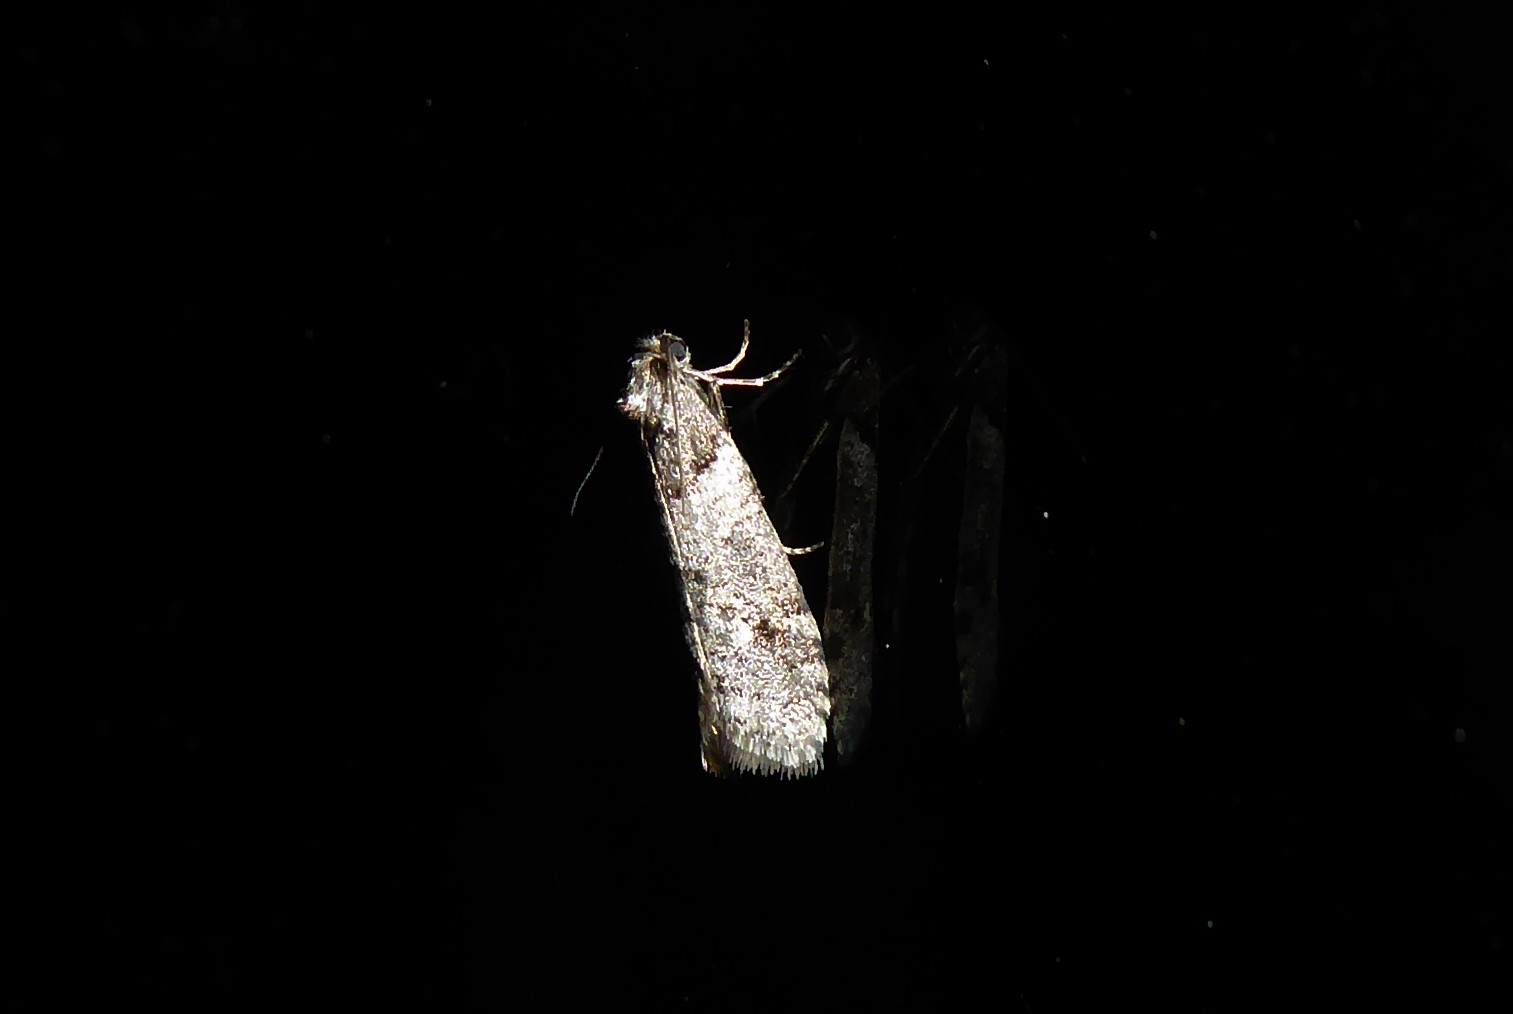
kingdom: Animalia
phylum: Arthropoda
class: Insecta
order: Lepidoptera
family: Psychidae
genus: Lepidoscia
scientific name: Lepidoscia heliochares
